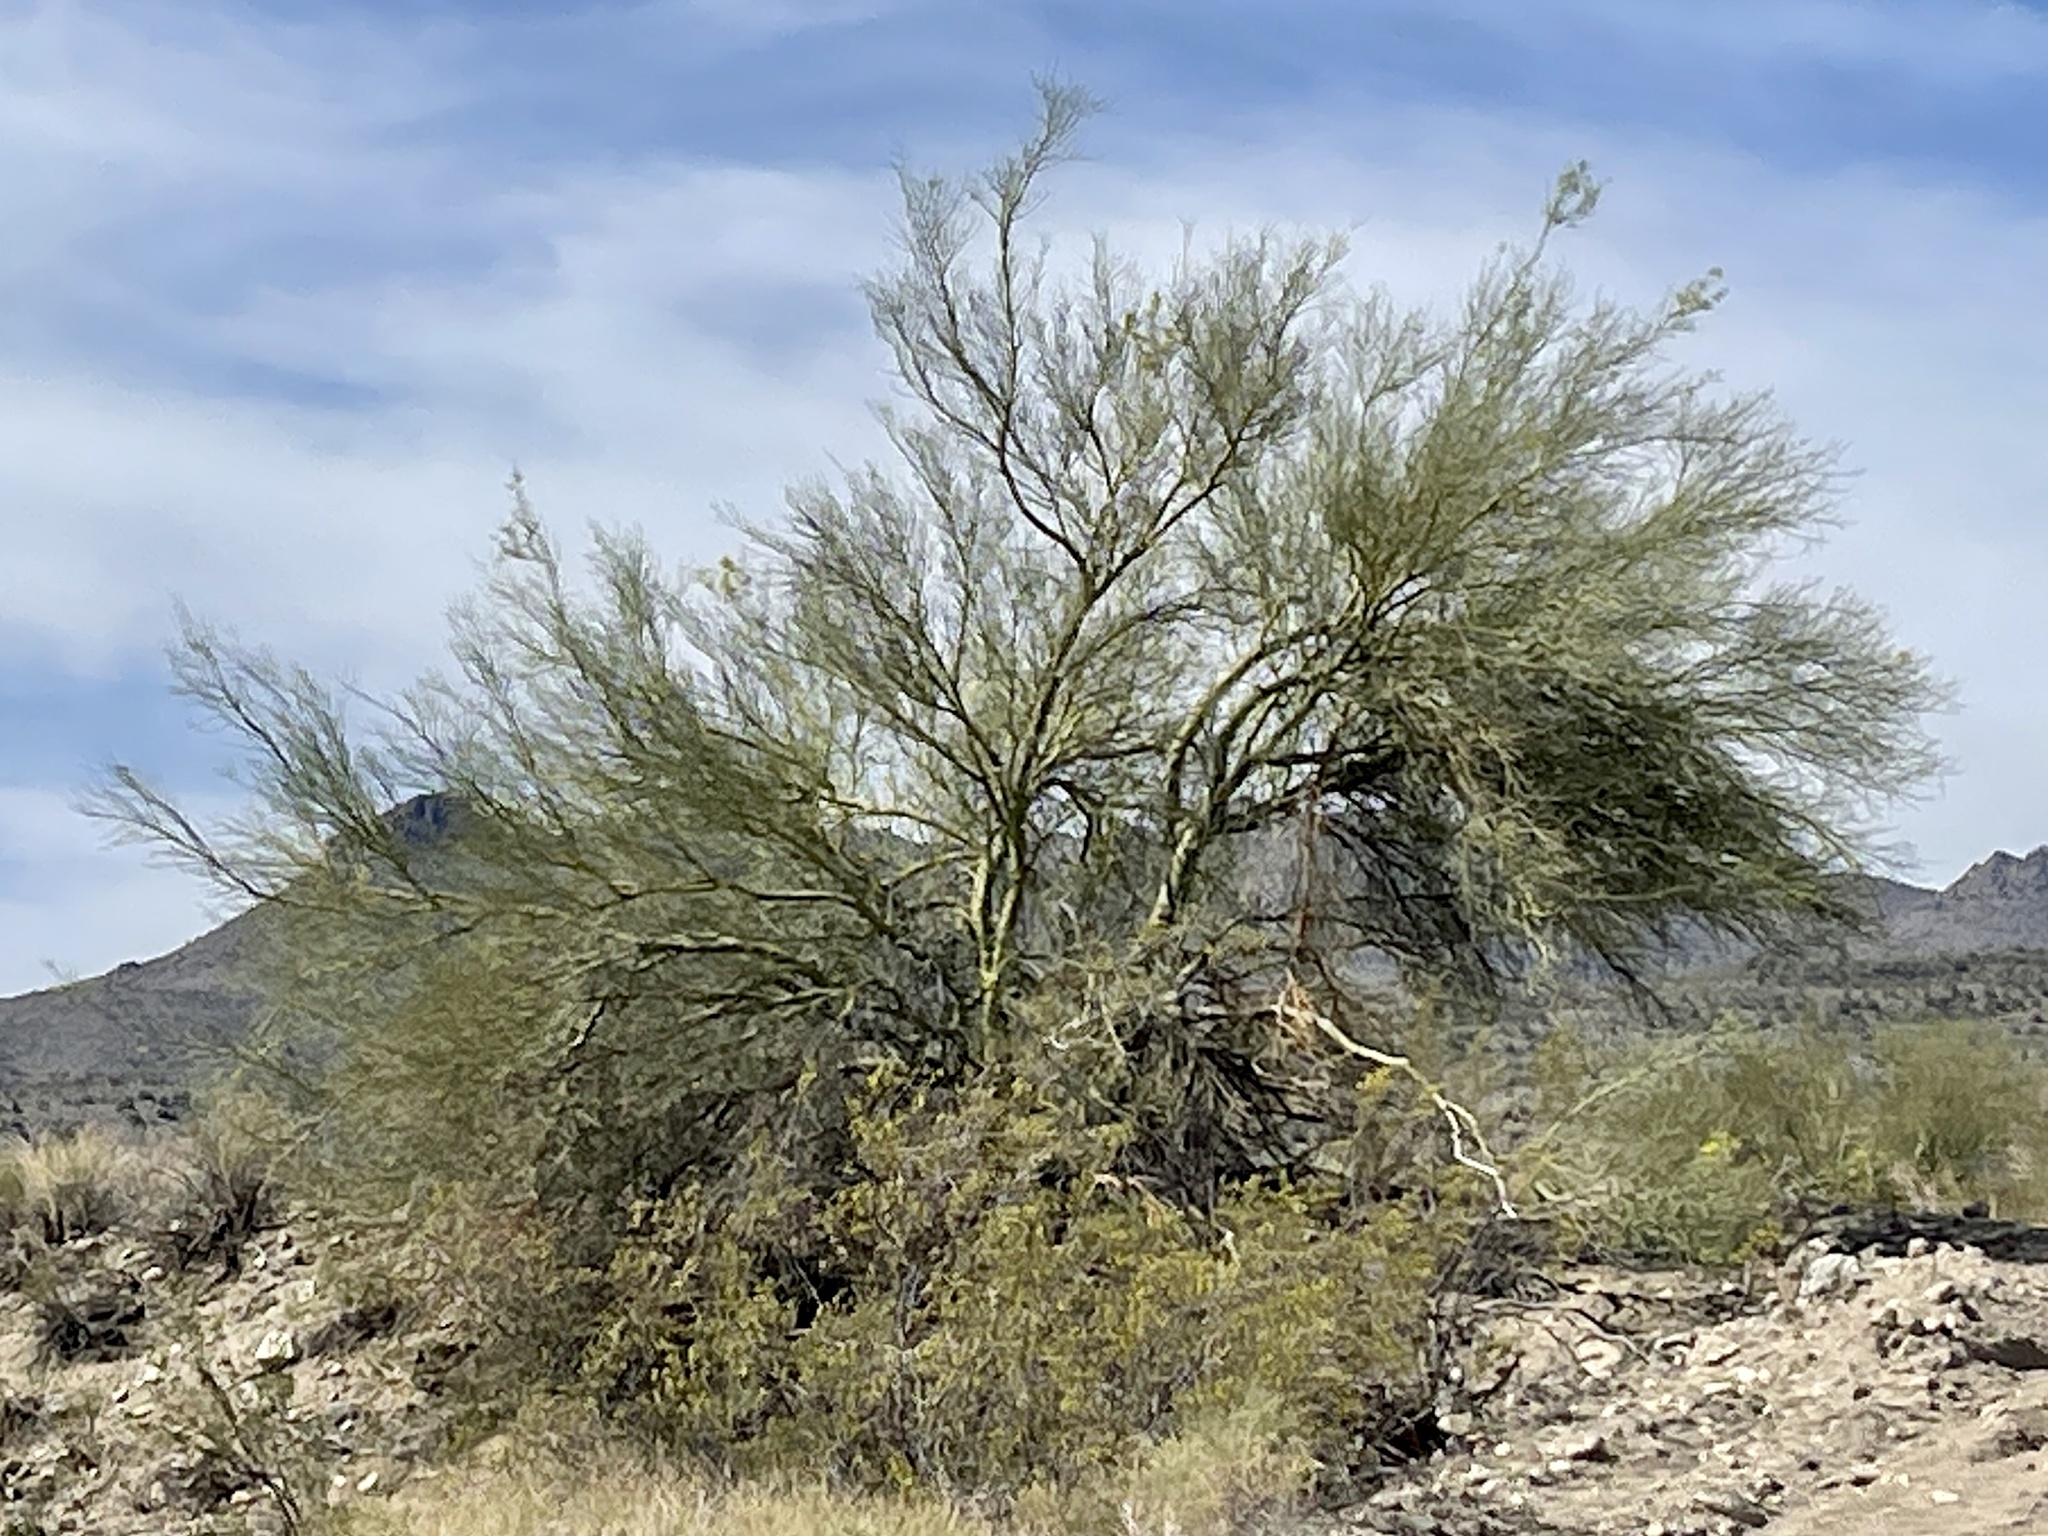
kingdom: Plantae
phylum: Tracheophyta
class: Magnoliopsida
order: Fabales
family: Fabaceae
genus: Parkinsonia
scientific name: Parkinsonia microphylla
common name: Yellow paloverde
